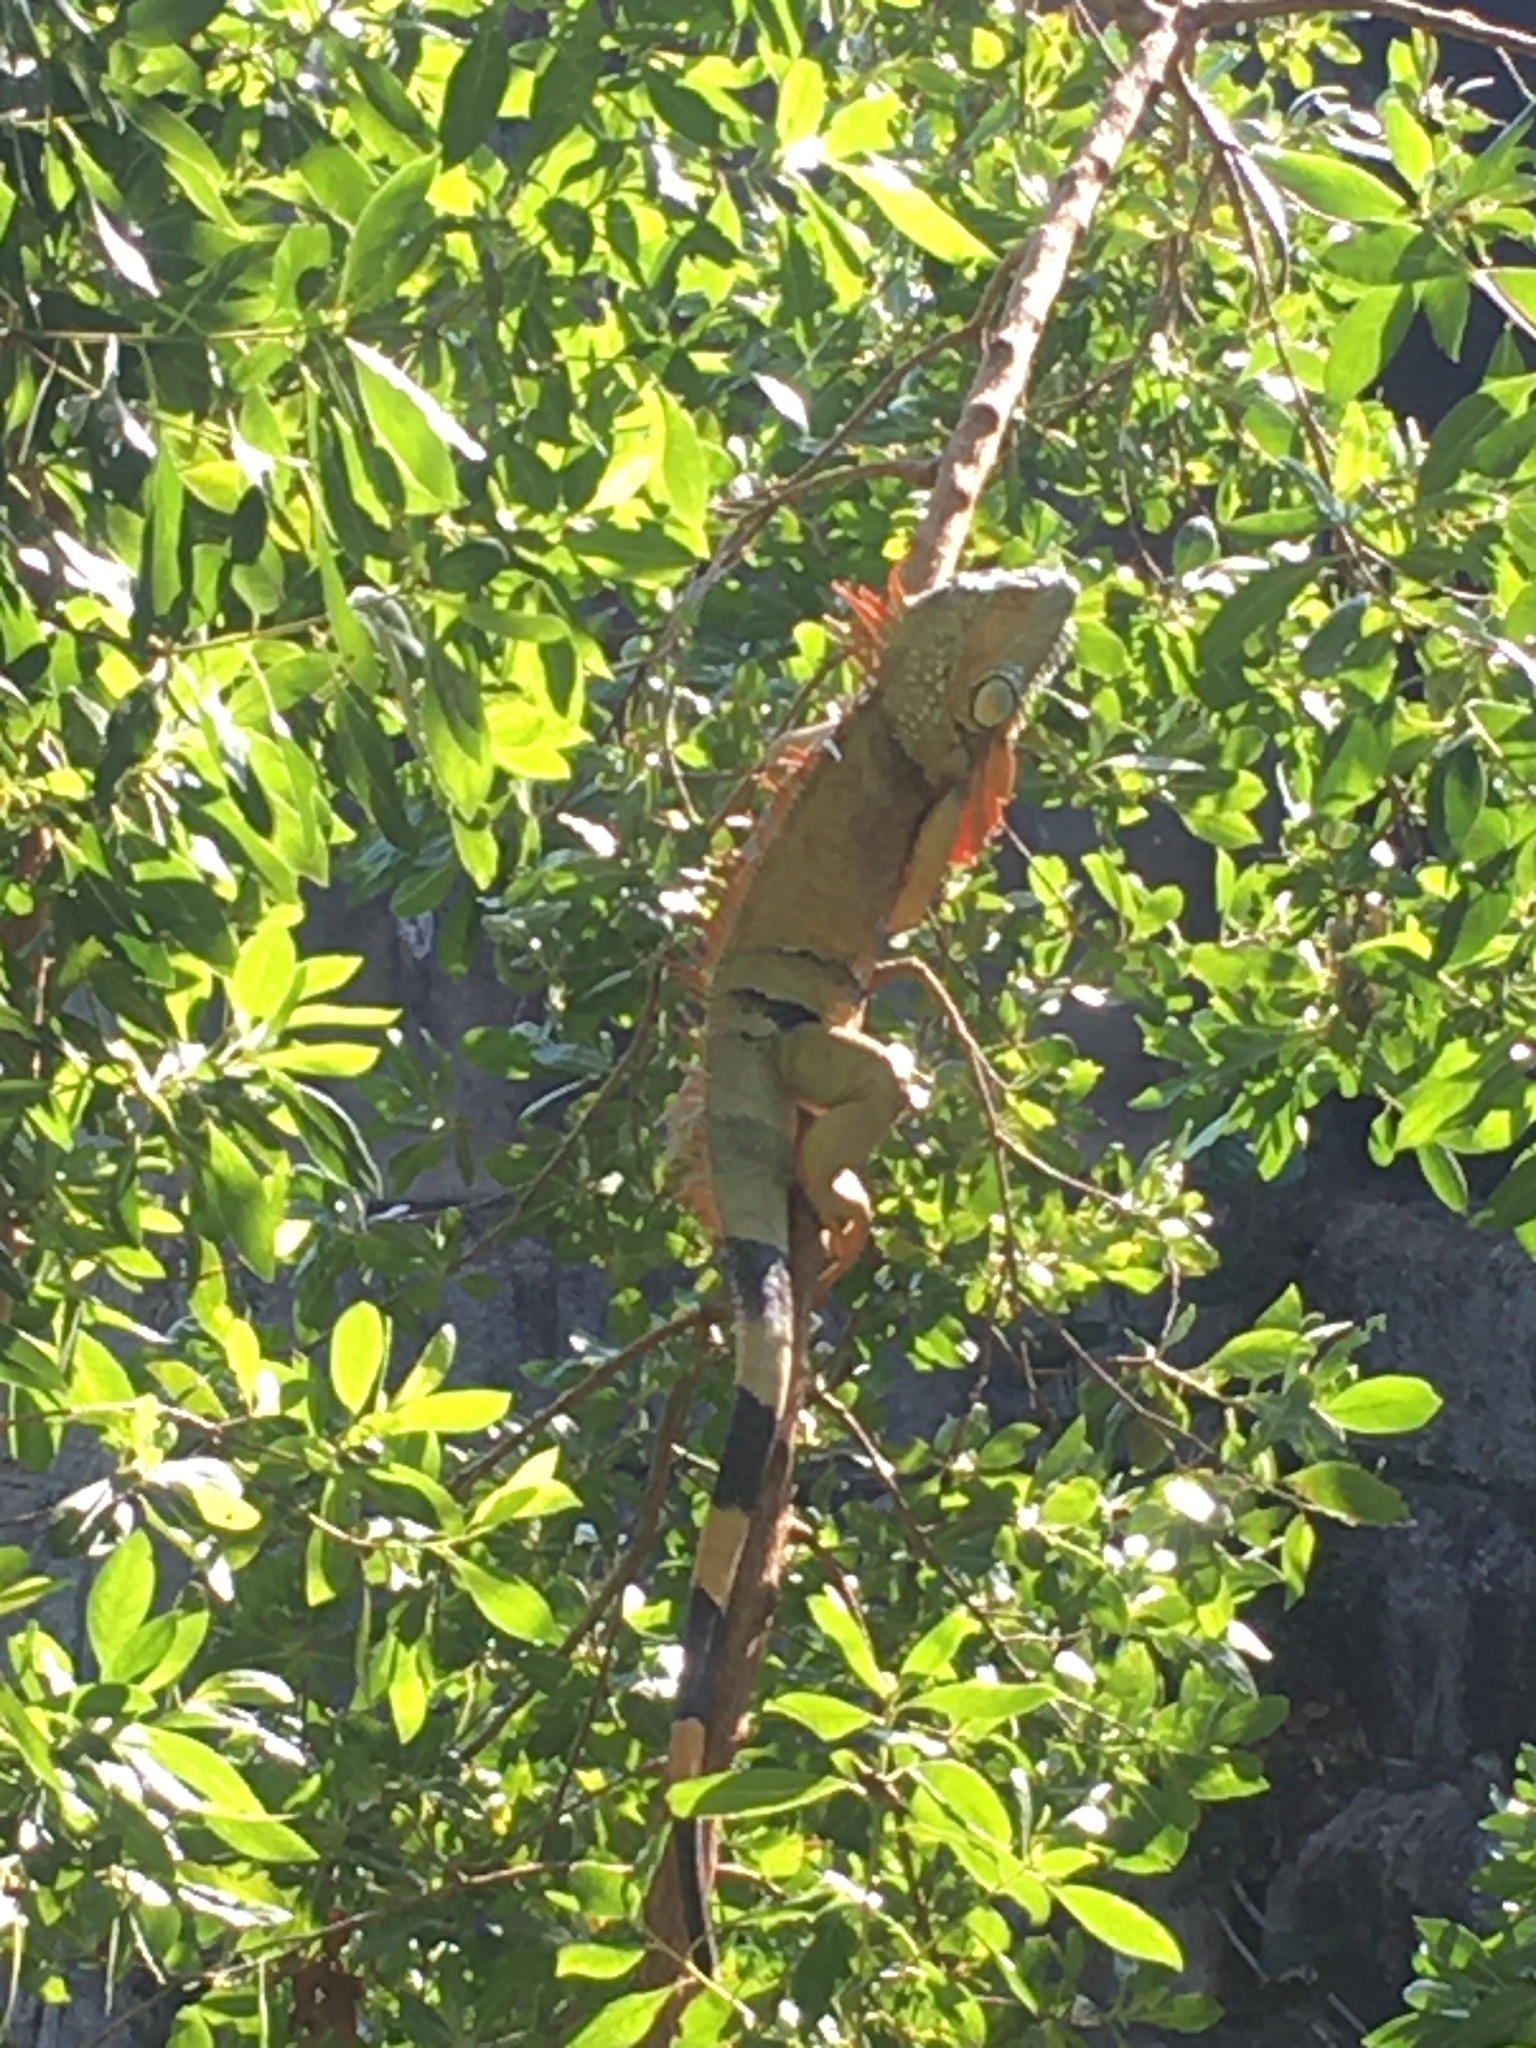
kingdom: Animalia
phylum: Chordata
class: Squamata
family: Iguanidae
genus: Iguana
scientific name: Iguana iguana
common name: Green iguana
